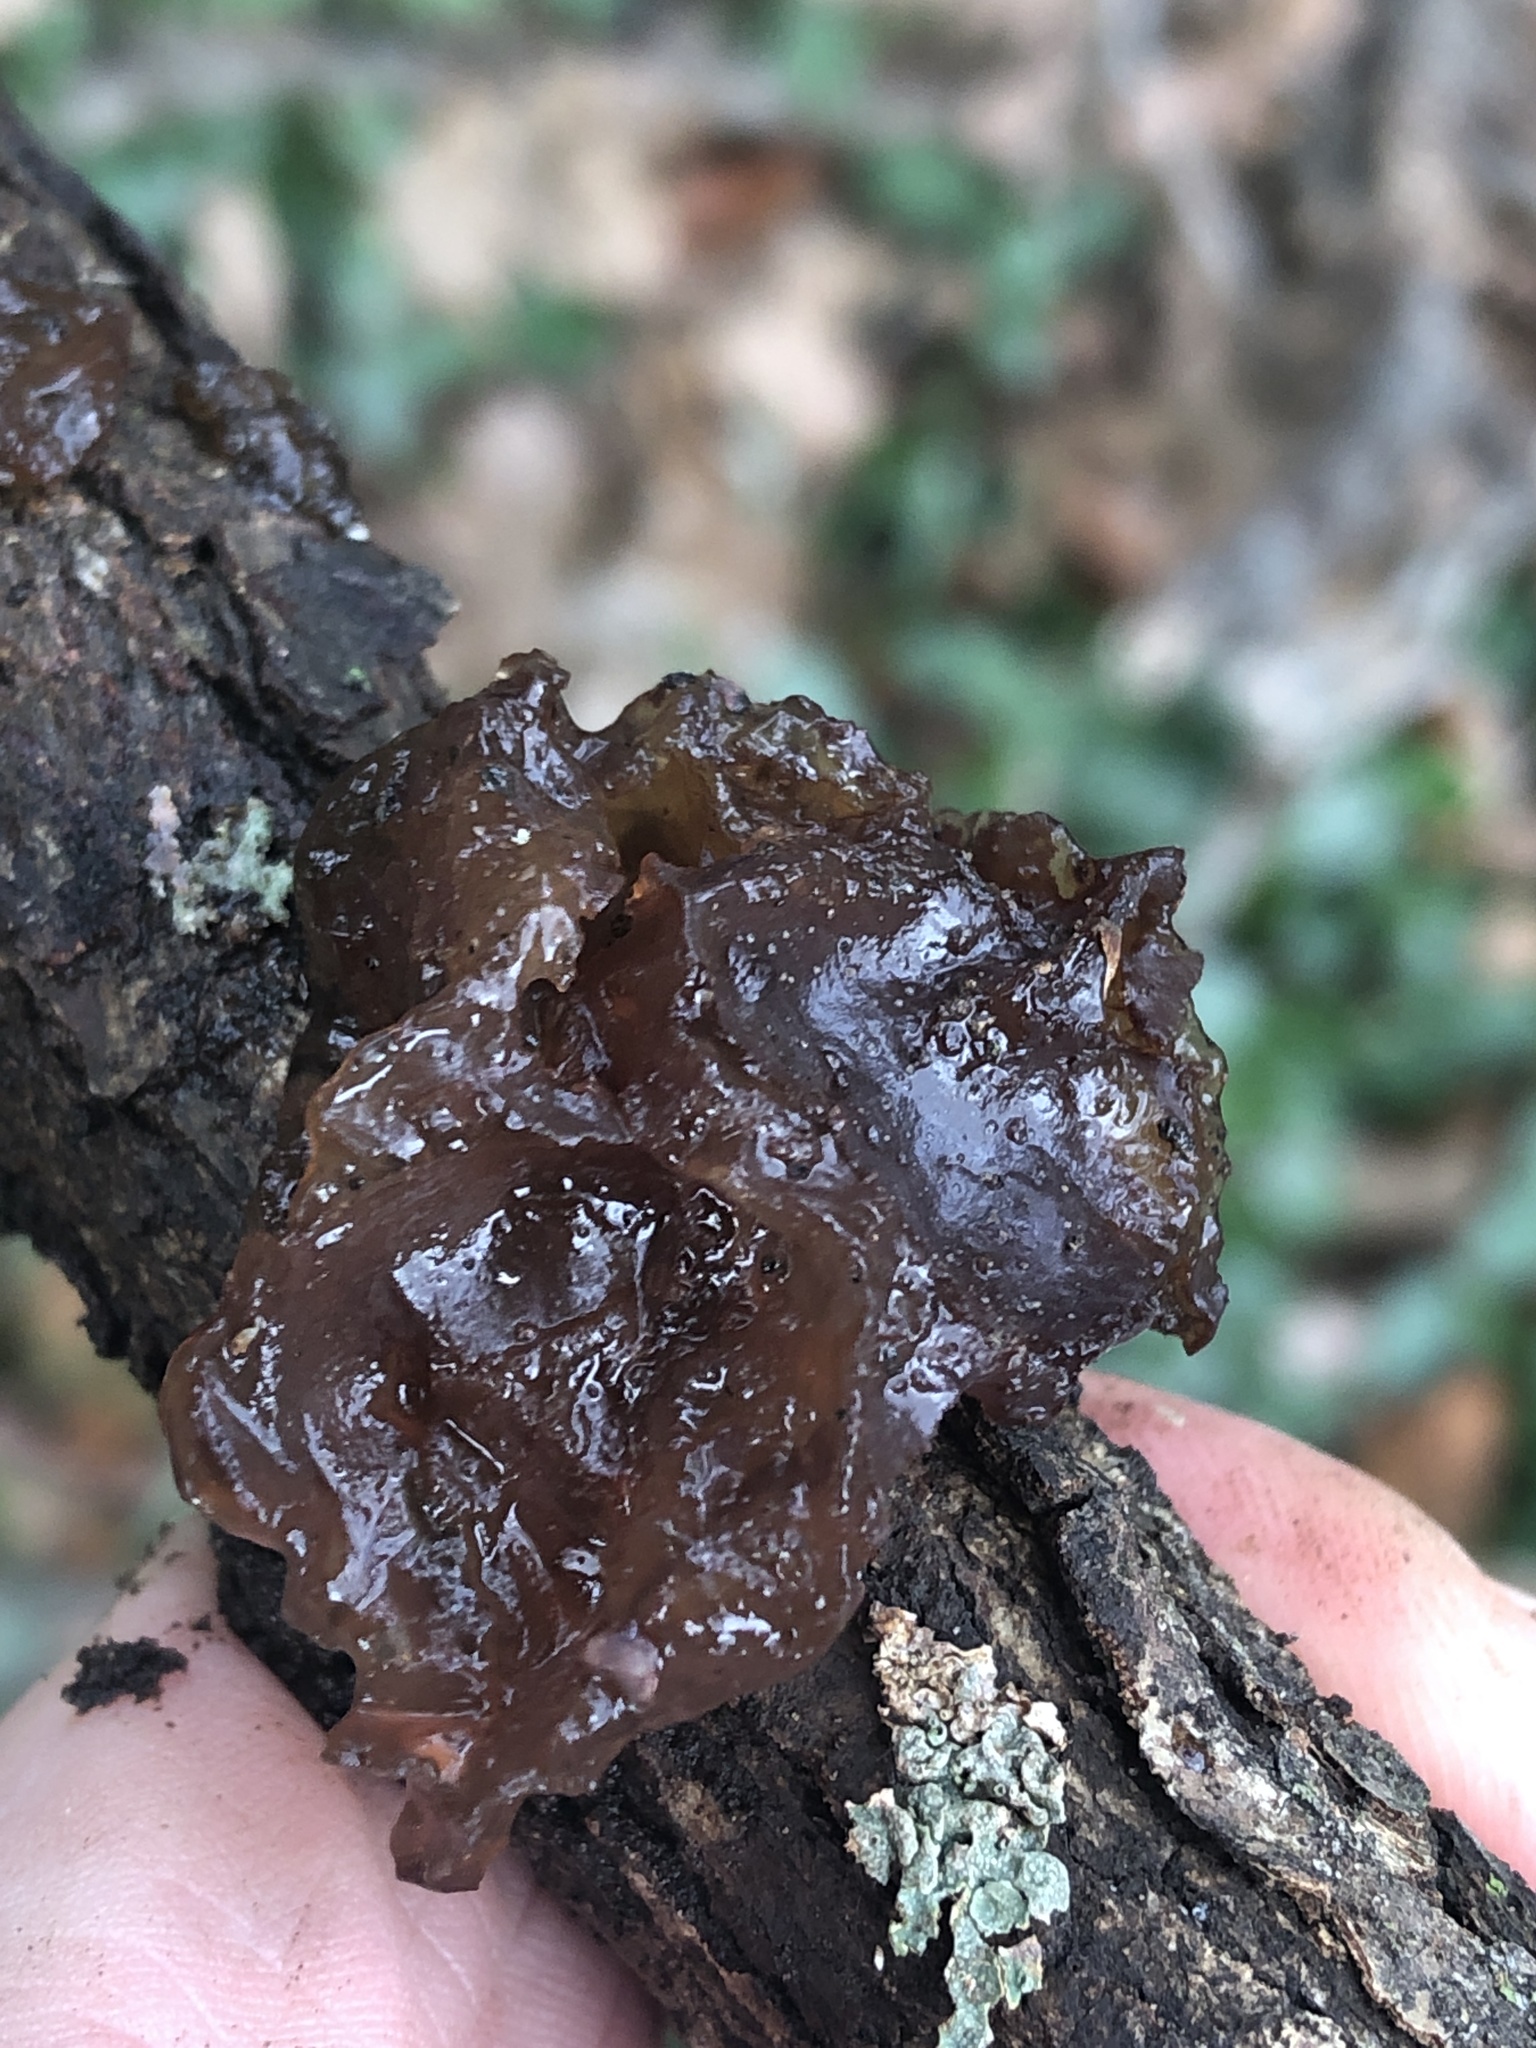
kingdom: Fungi
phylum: Basidiomycota
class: Agaricomycetes
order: Auriculariales
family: Auriculariaceae
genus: Exidia
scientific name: Exidia
